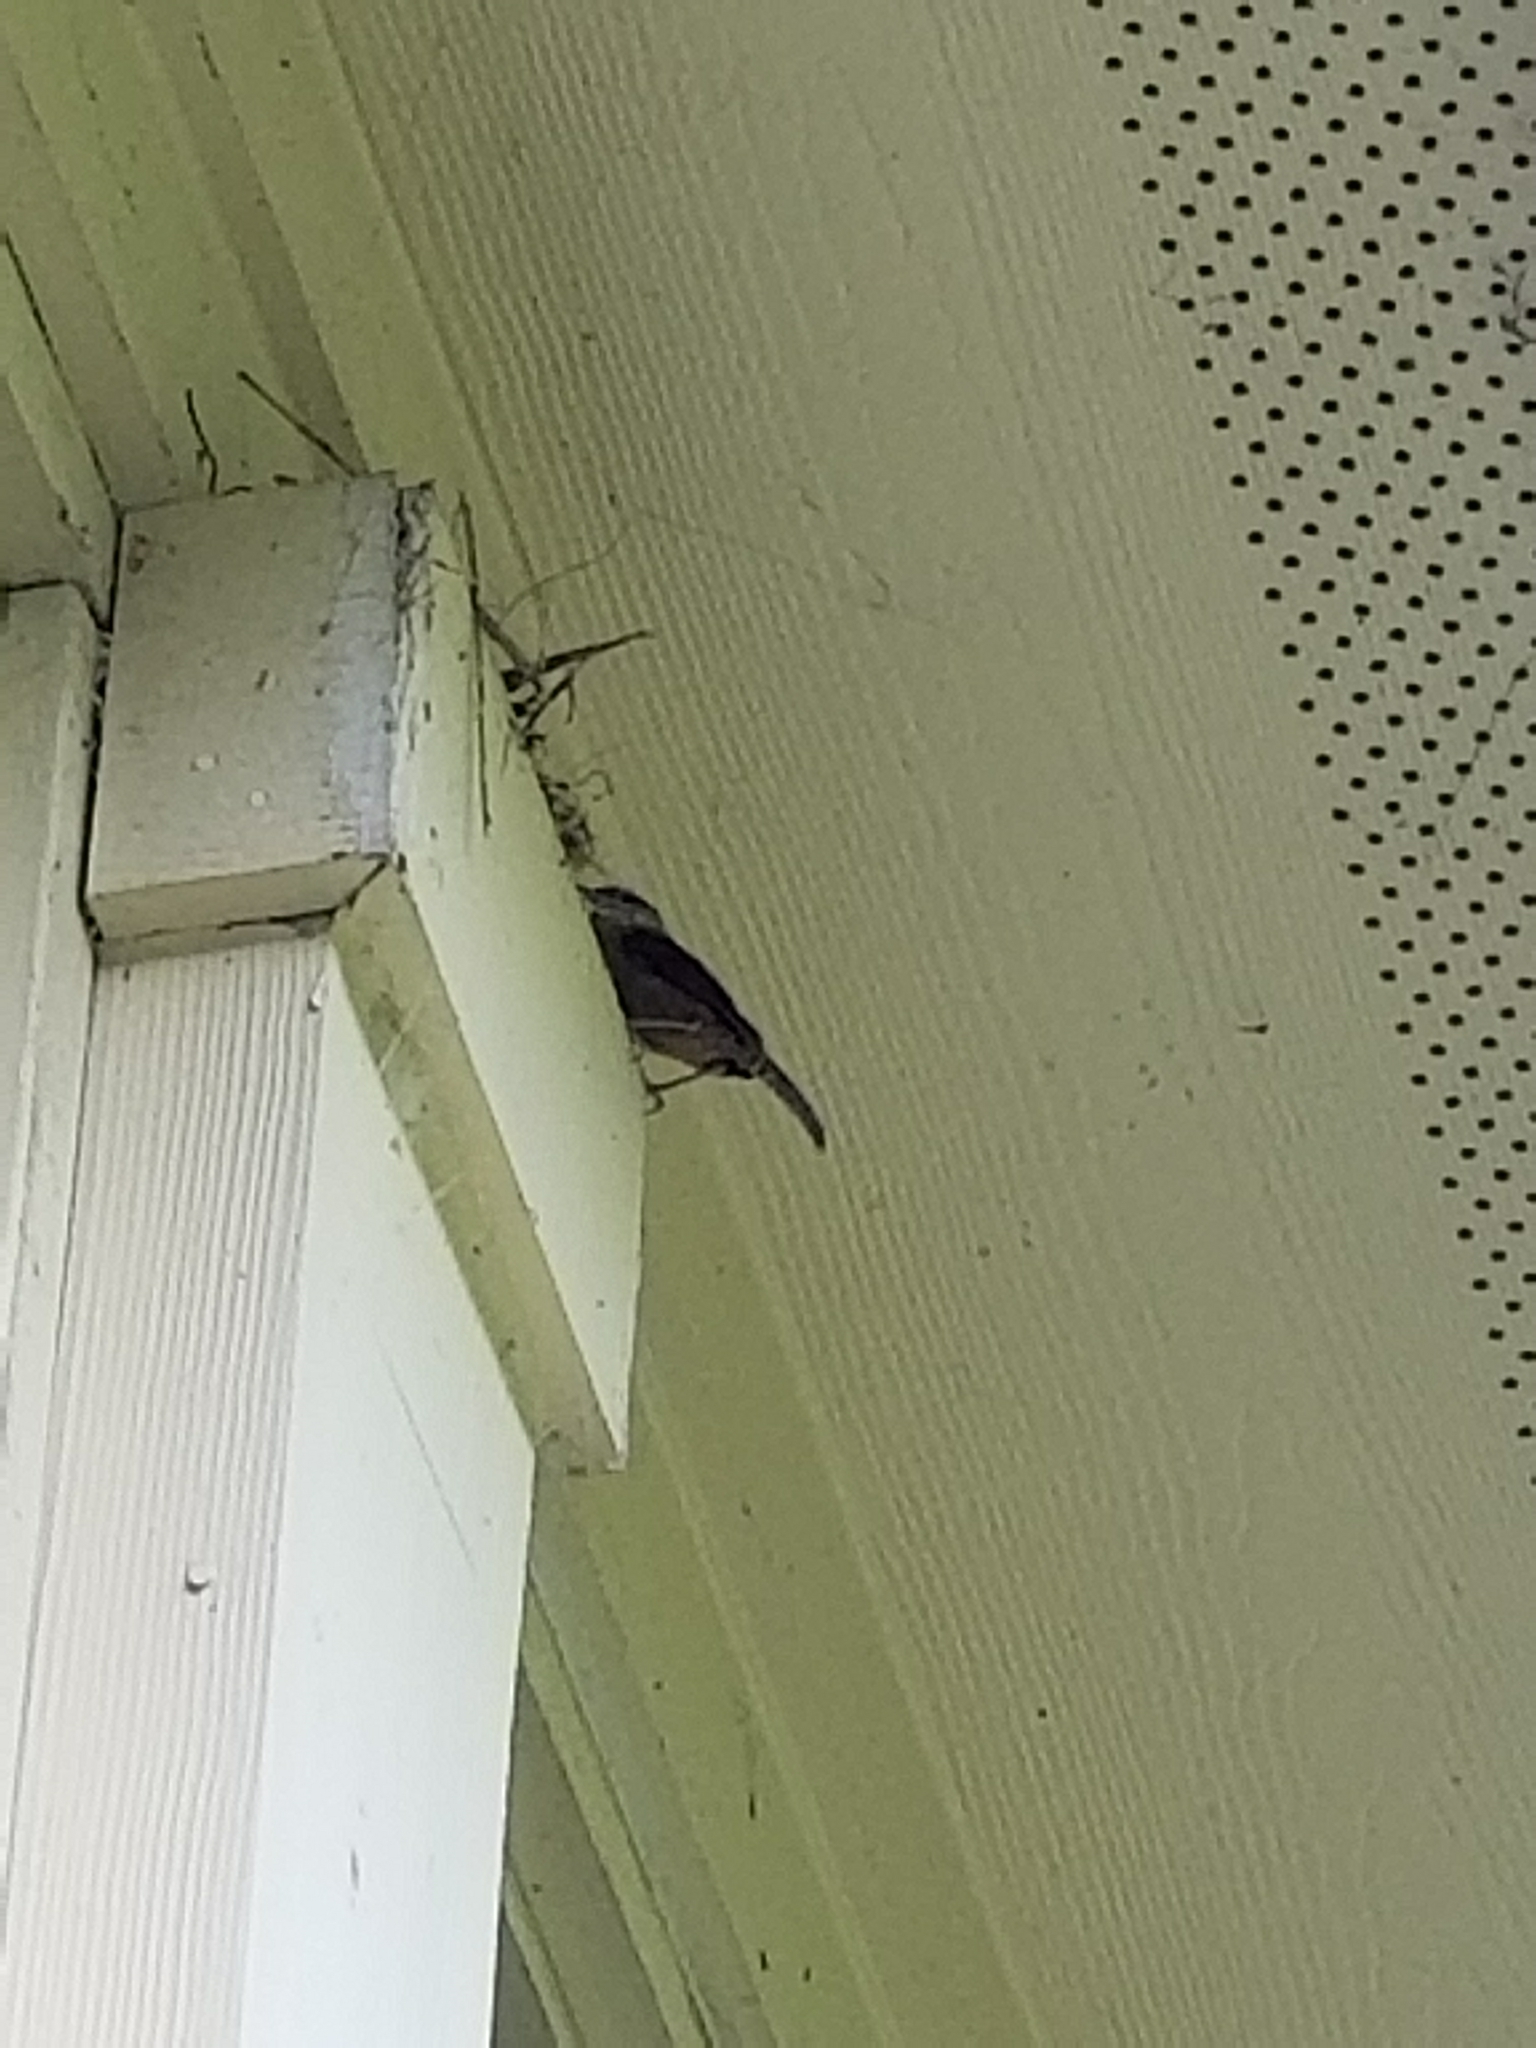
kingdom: Animalia
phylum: Chordata
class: Aves
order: Passeriformes
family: Troglodytidae
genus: Thryothorus
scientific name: Thryothorus ludovicianus
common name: Carolina wren
